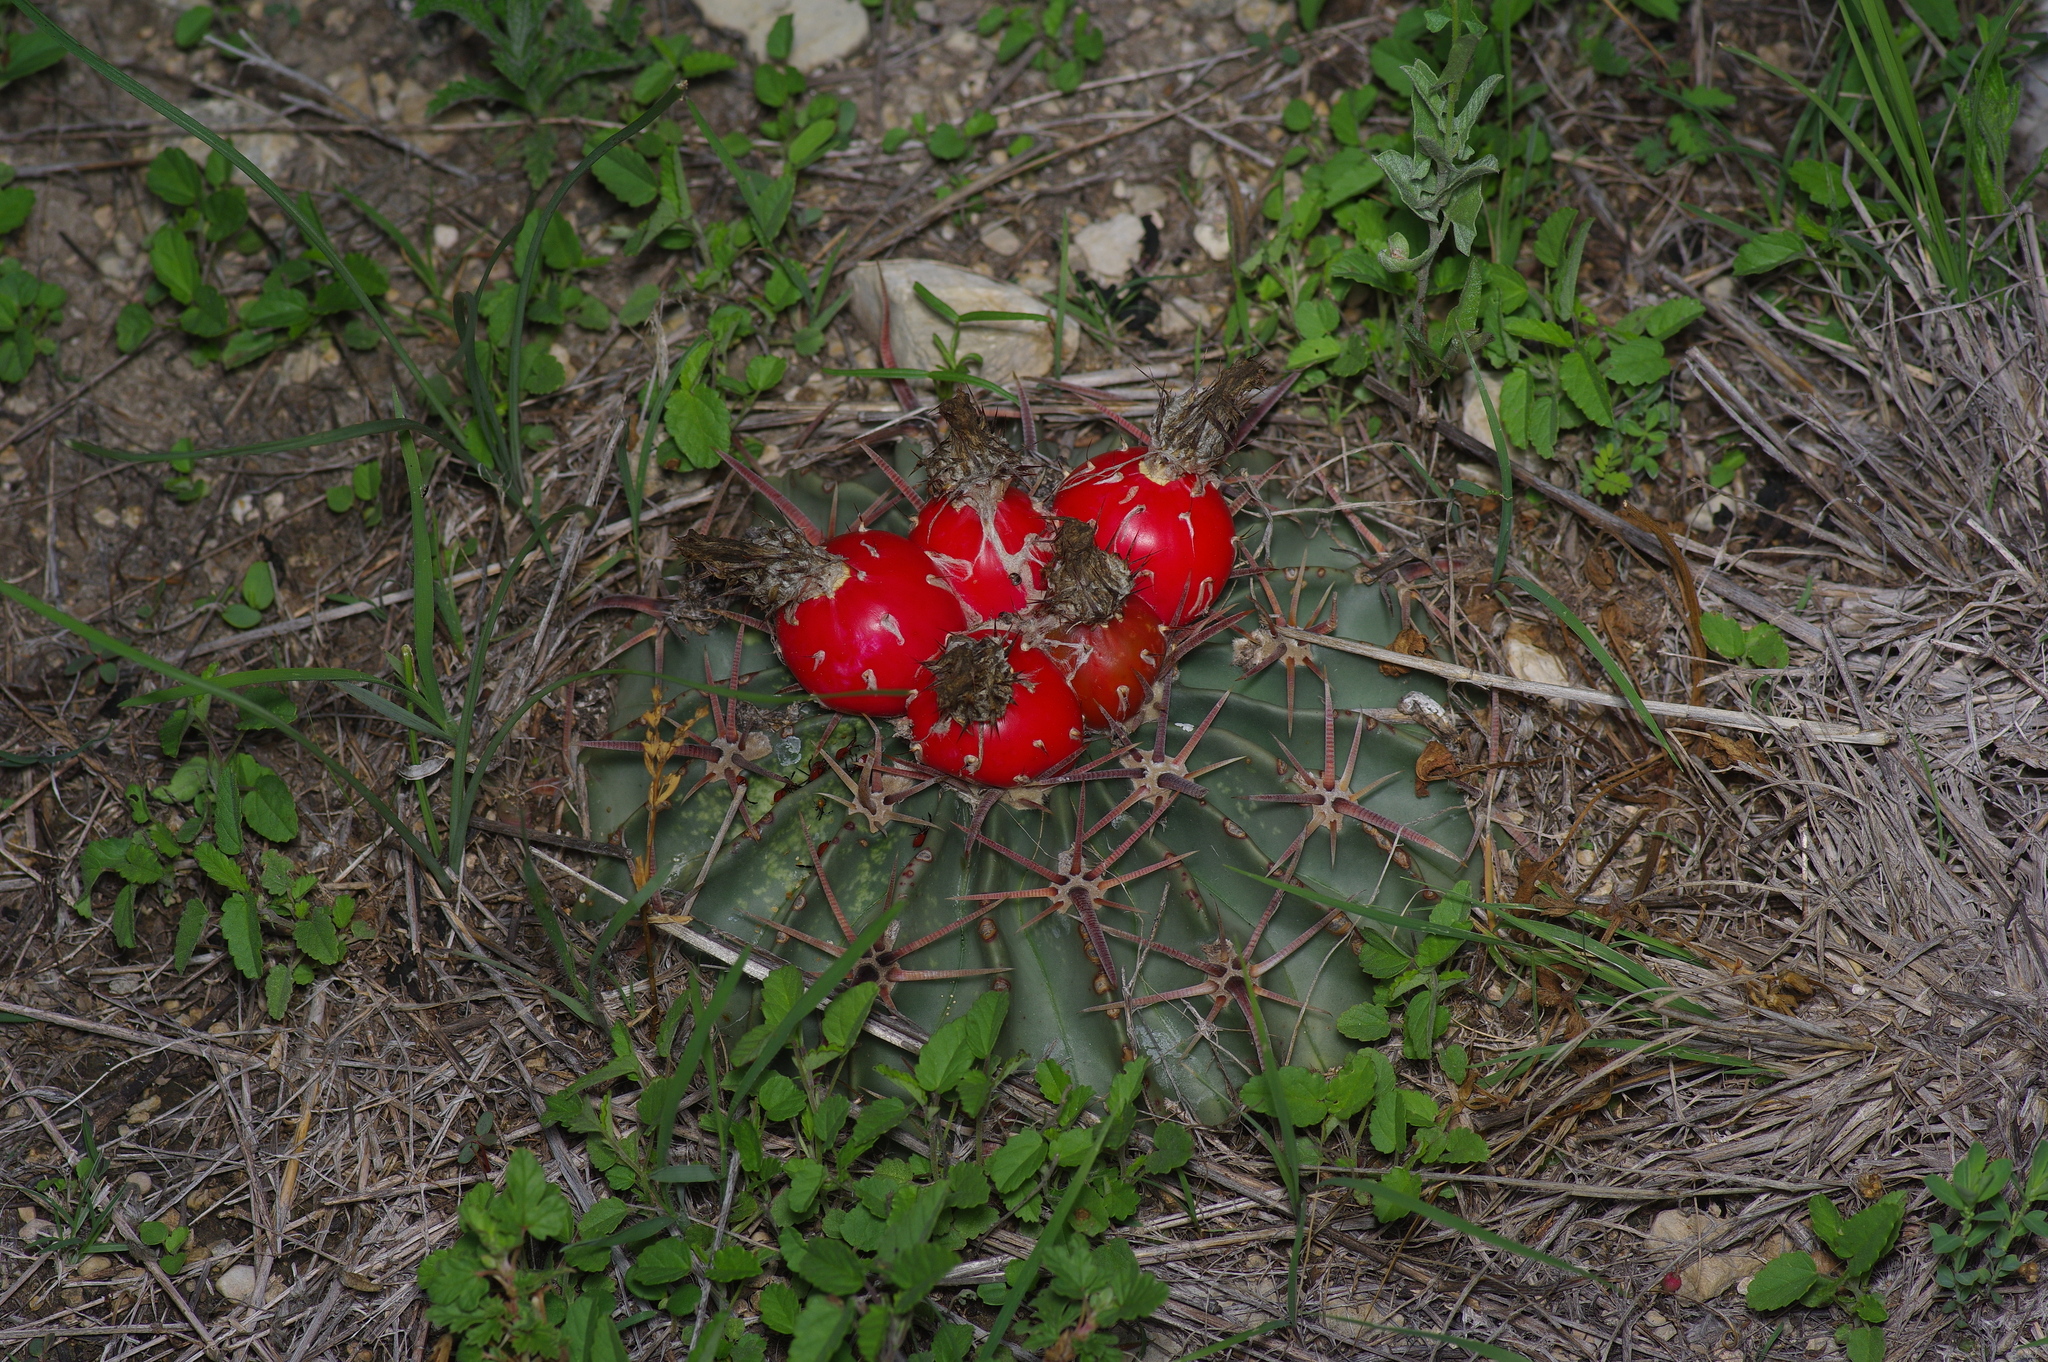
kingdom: Plantae
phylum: Tracheophyta
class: Magnoliopsida
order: Caryophyllales
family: Cactaceae
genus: Echinocactus
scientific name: Echinocactus texensis
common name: Devil's pincushion
